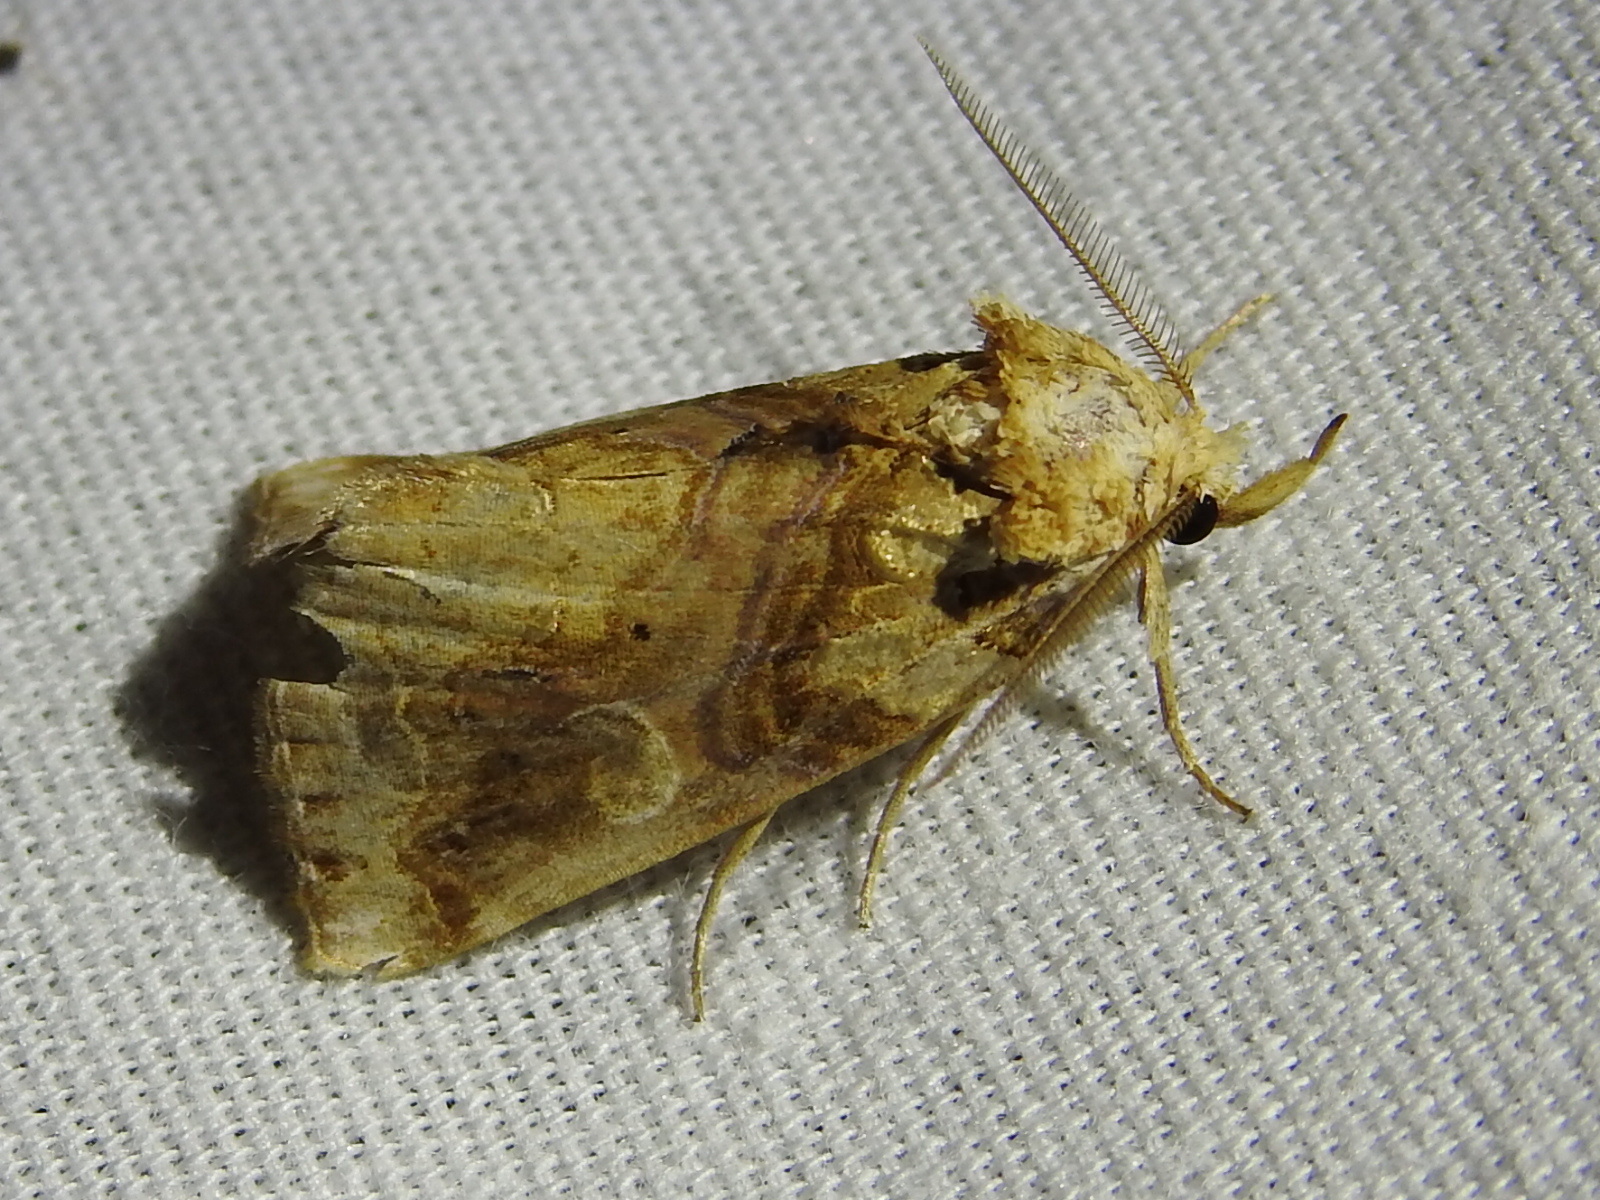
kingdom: Animalia
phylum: Arthropoda
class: Insecta
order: Lepidoptera
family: Erebidae
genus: Plusiodonta
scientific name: Plusiodonta compressipalpis
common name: Moonseed moth
